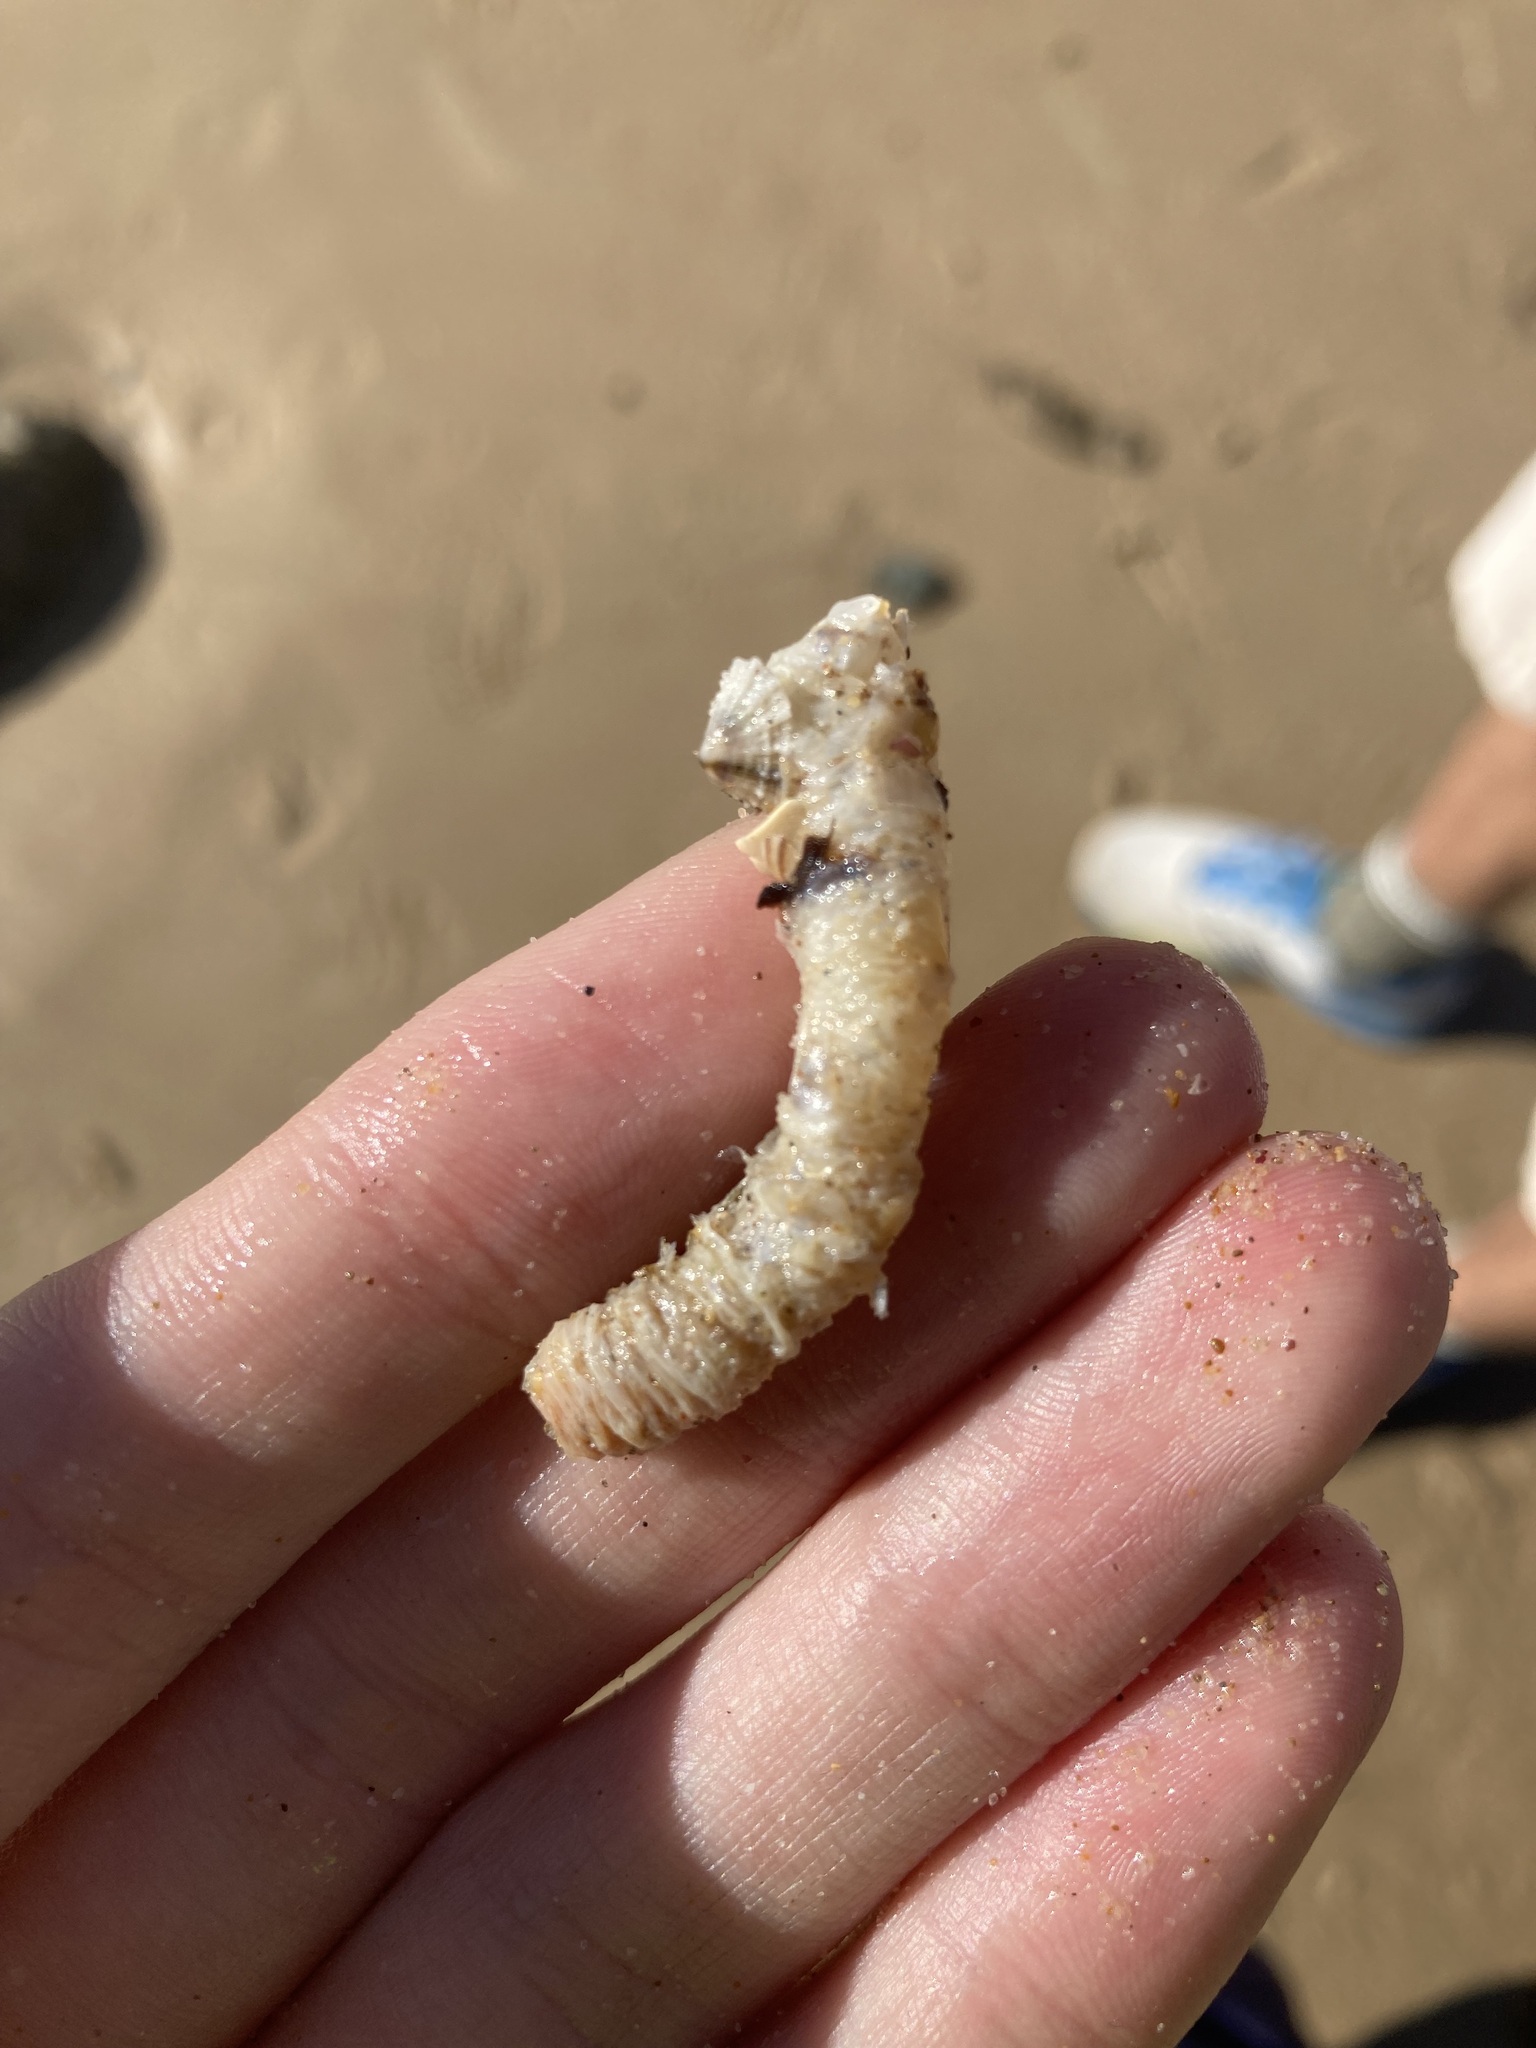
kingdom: Animalia
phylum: Annelida
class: Polychaeta
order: Eunicida
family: Onuphidae
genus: Diopatra
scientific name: Diopatra dentata
